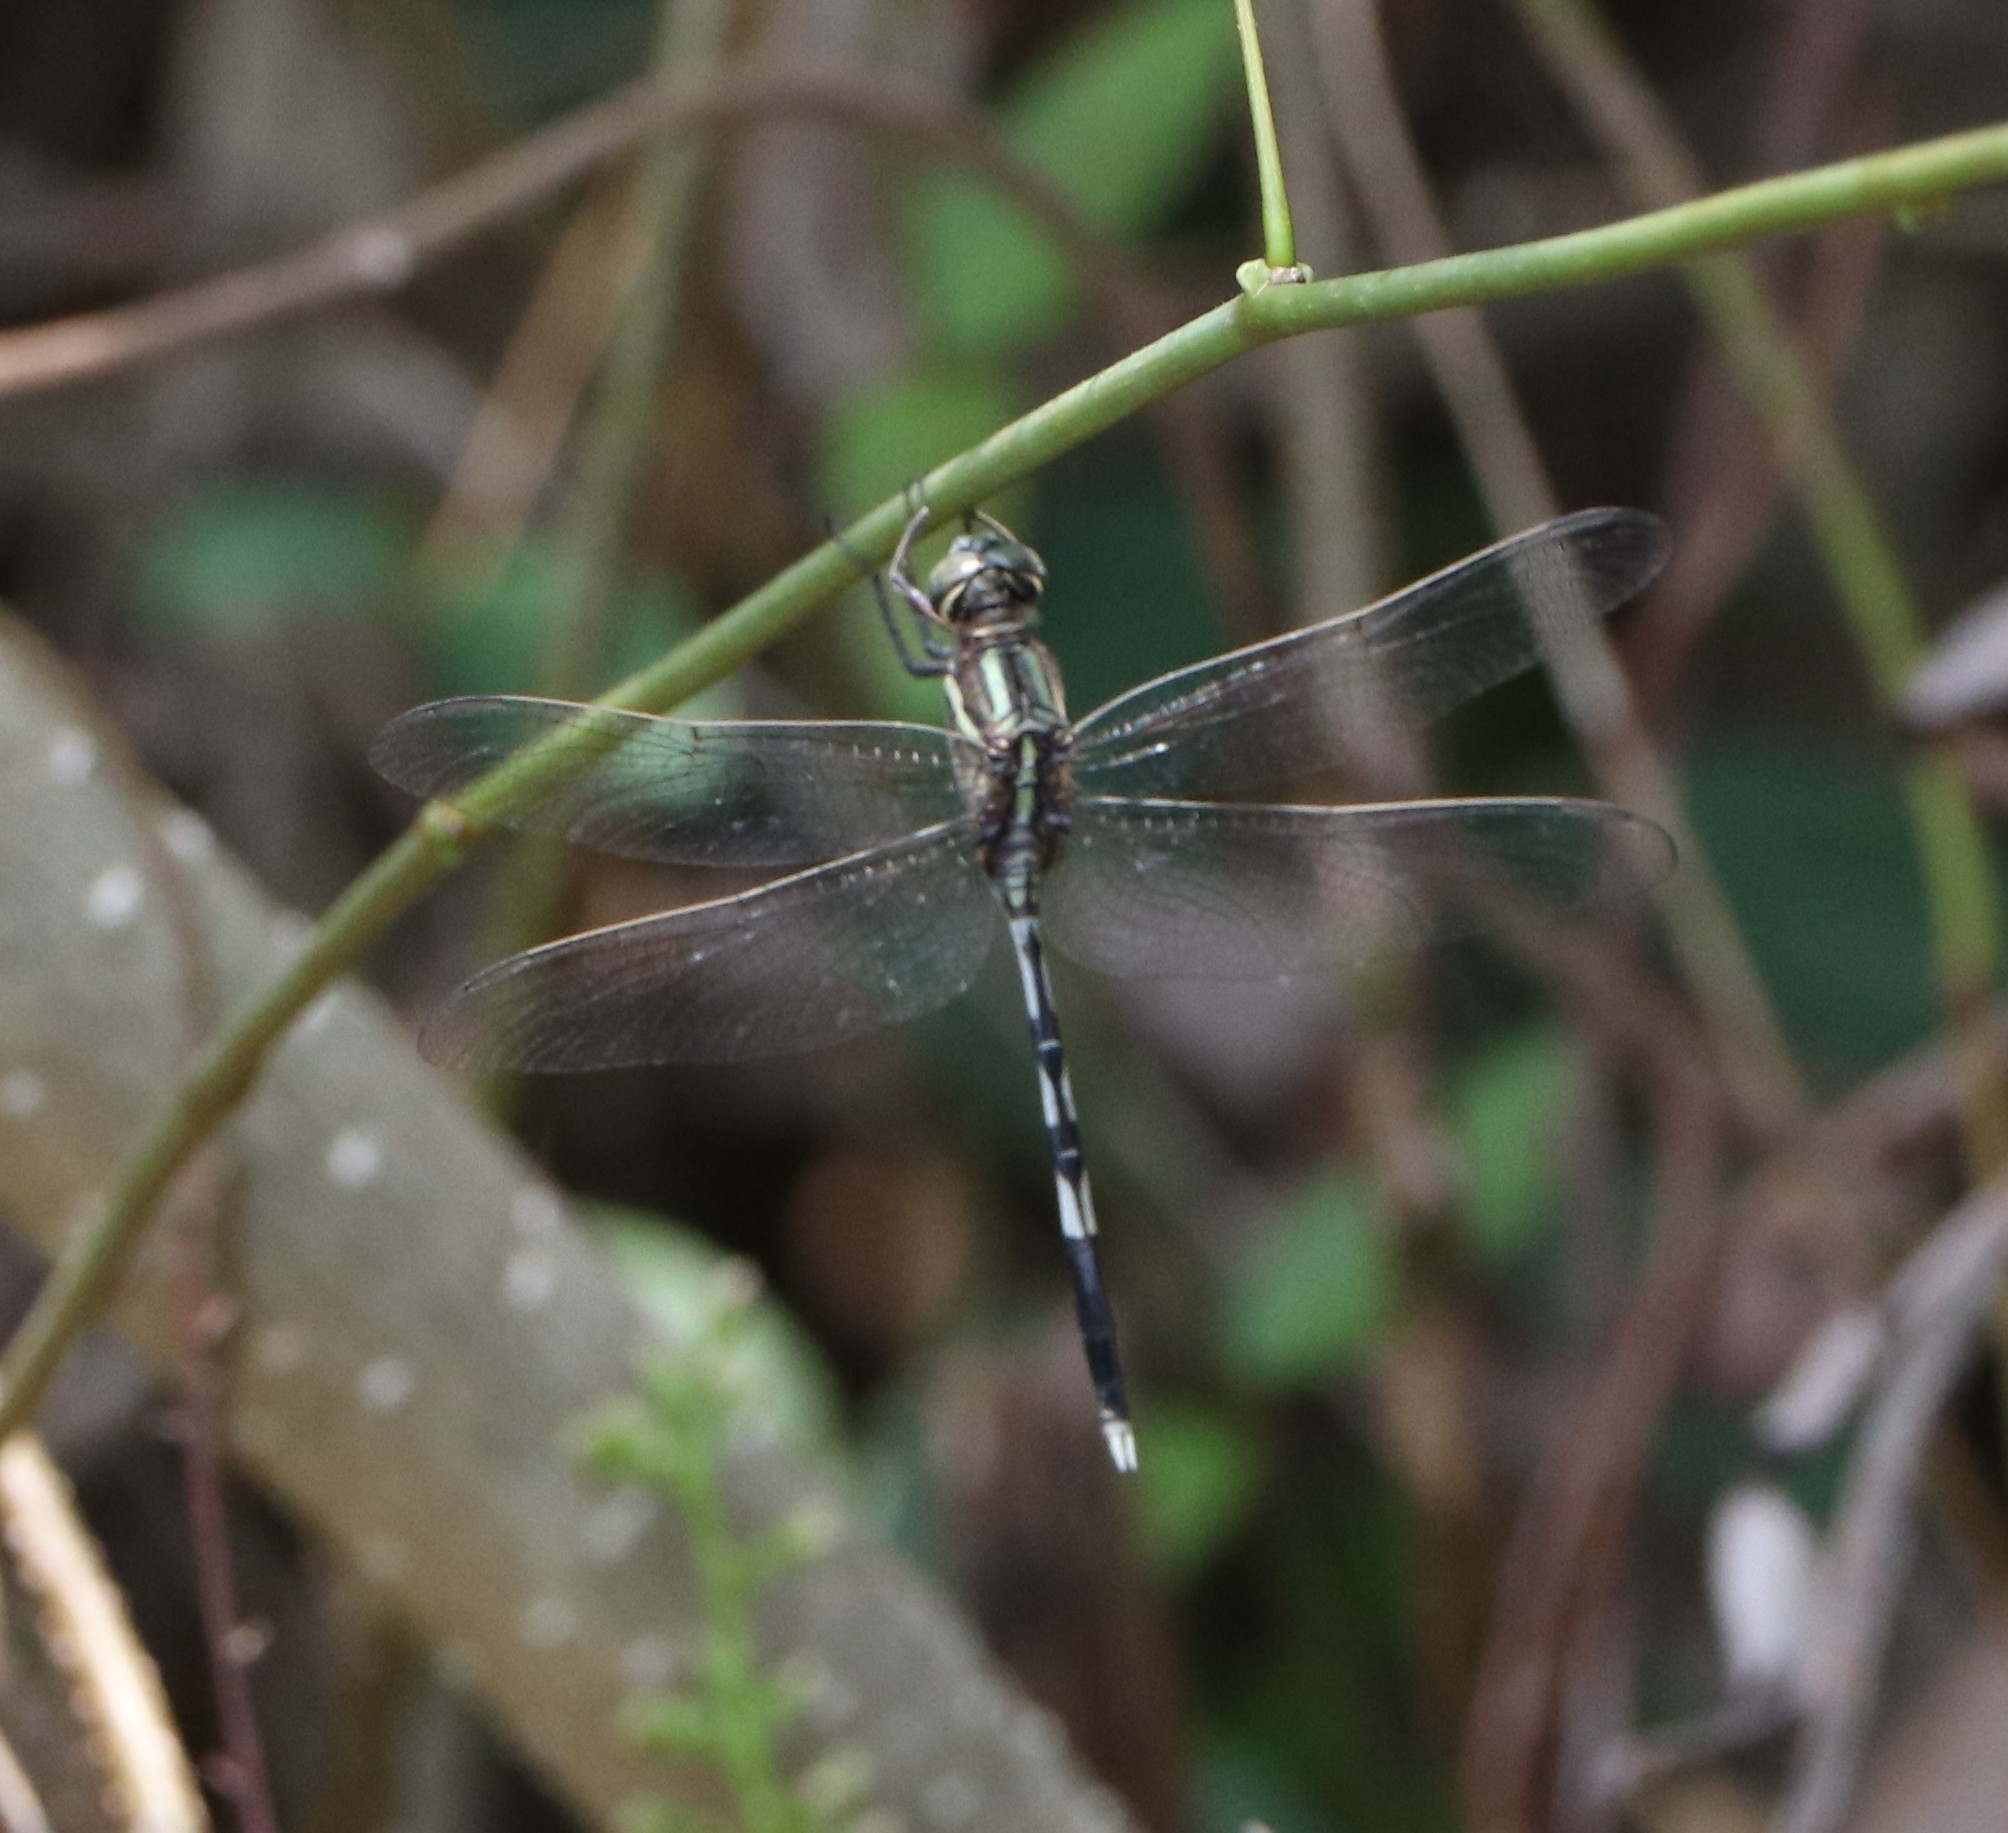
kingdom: Animalia
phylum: Arthropoda
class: Insecta
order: Odonata
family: Libellulidae
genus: Orthetrum
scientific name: Orthetrum sabina
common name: Slender skimmer
